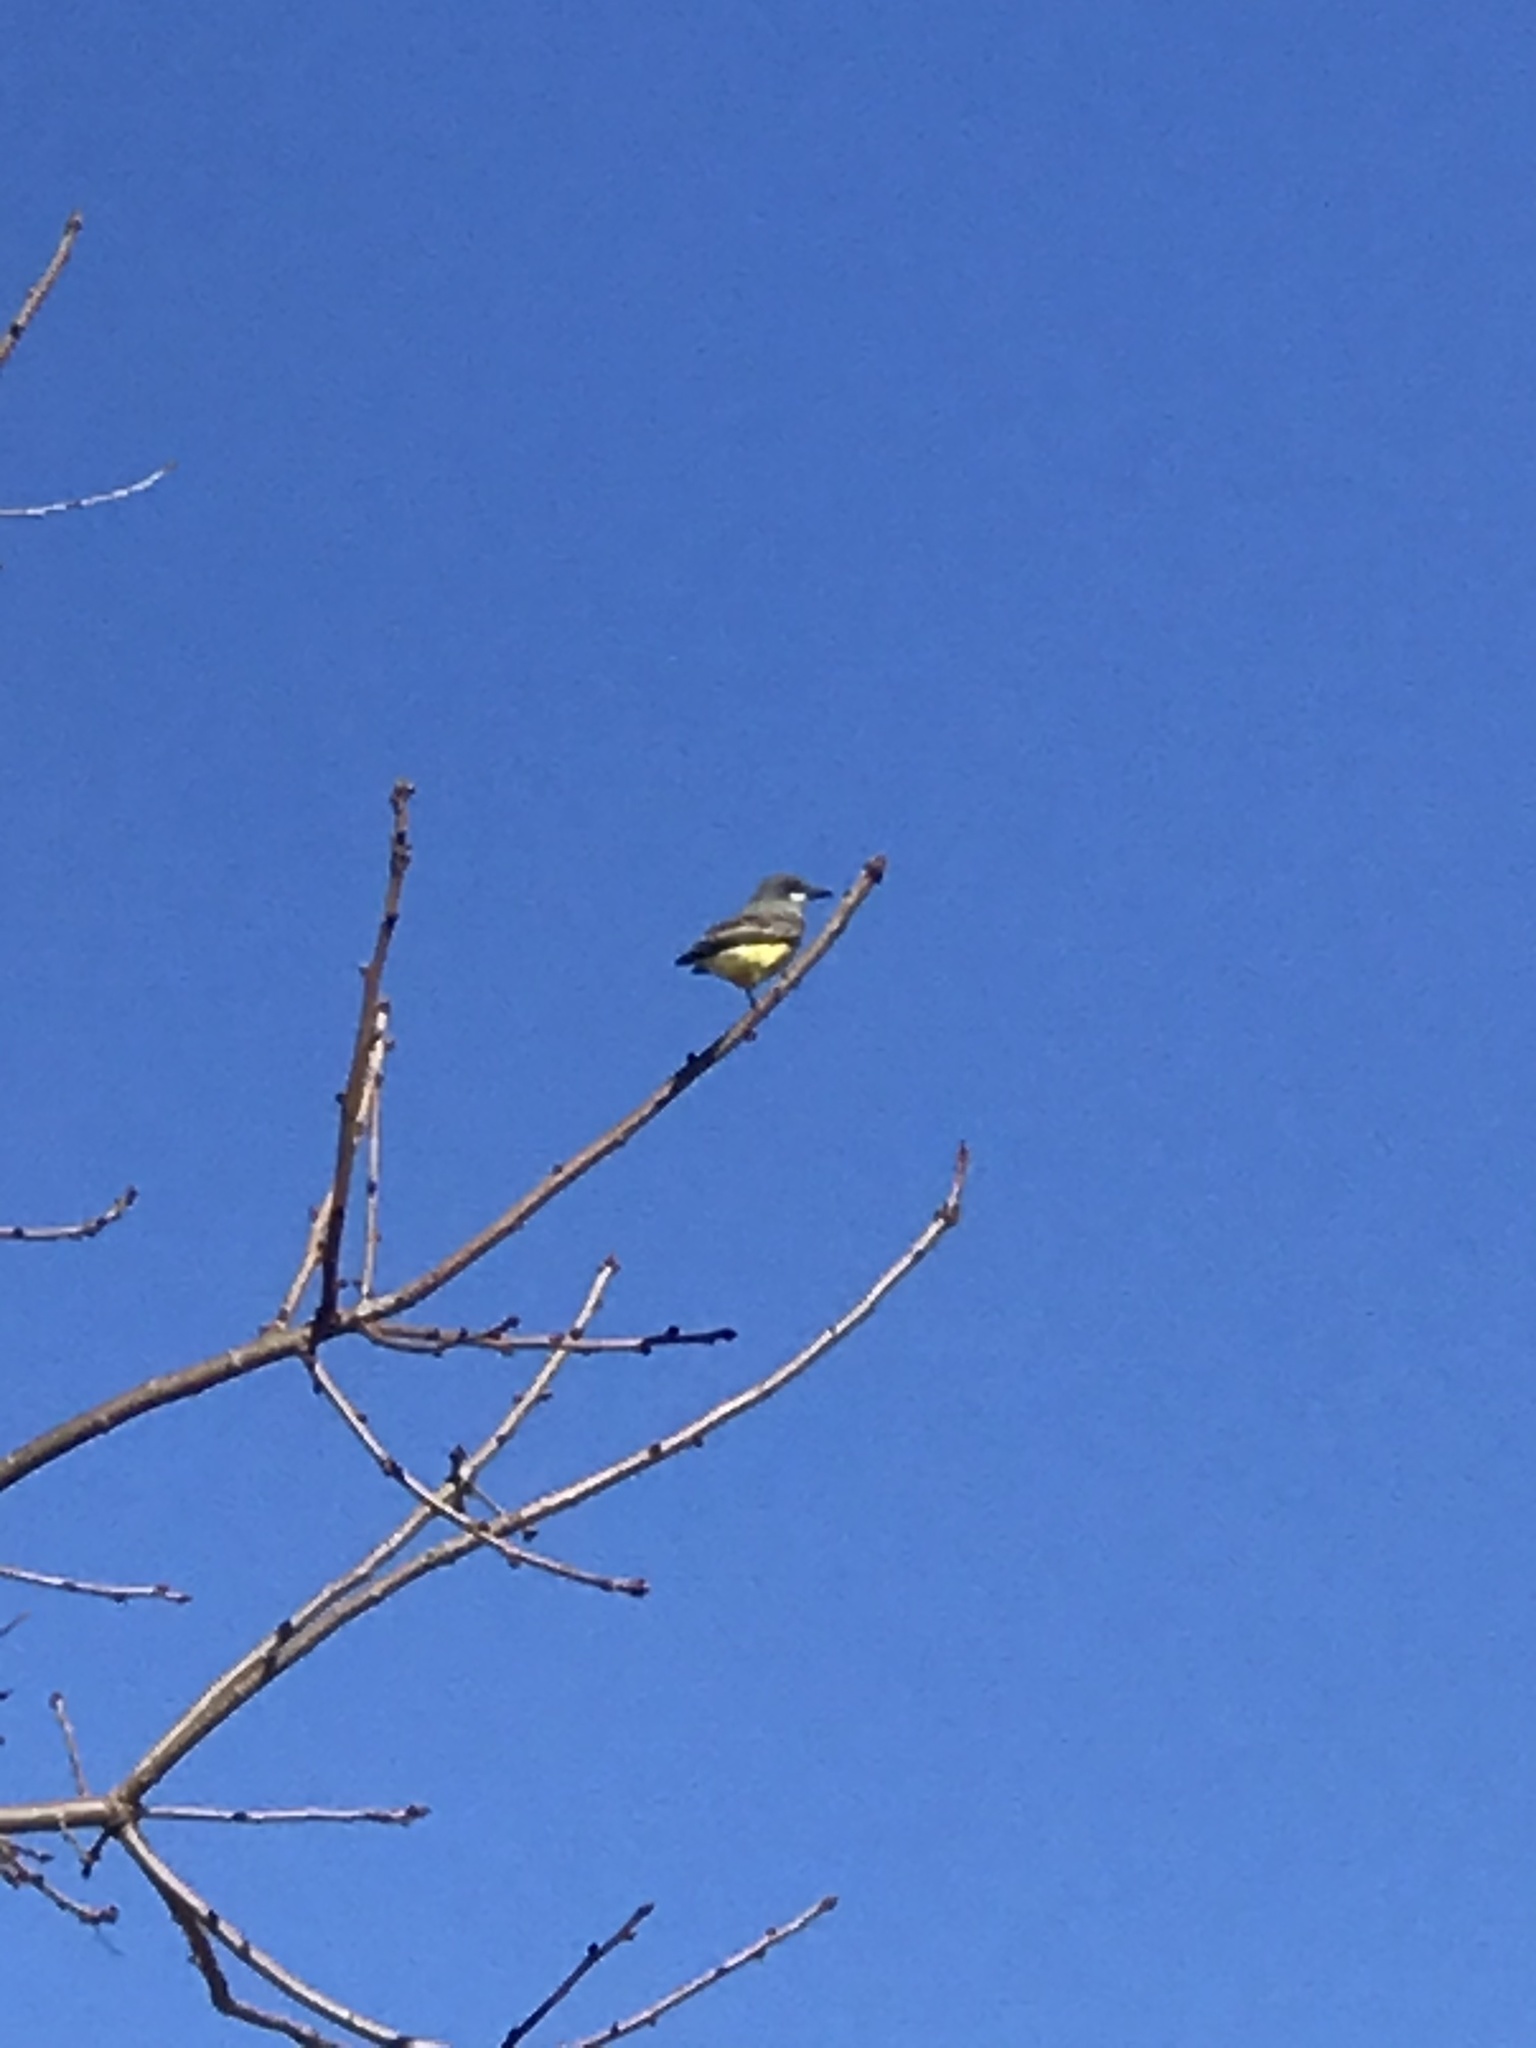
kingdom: Animalia
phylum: Chordata
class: Aves
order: Passeriformes
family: Tyrannidae
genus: Tyrannus
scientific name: Tyrannus vociferans
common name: Cassin's kingbird
